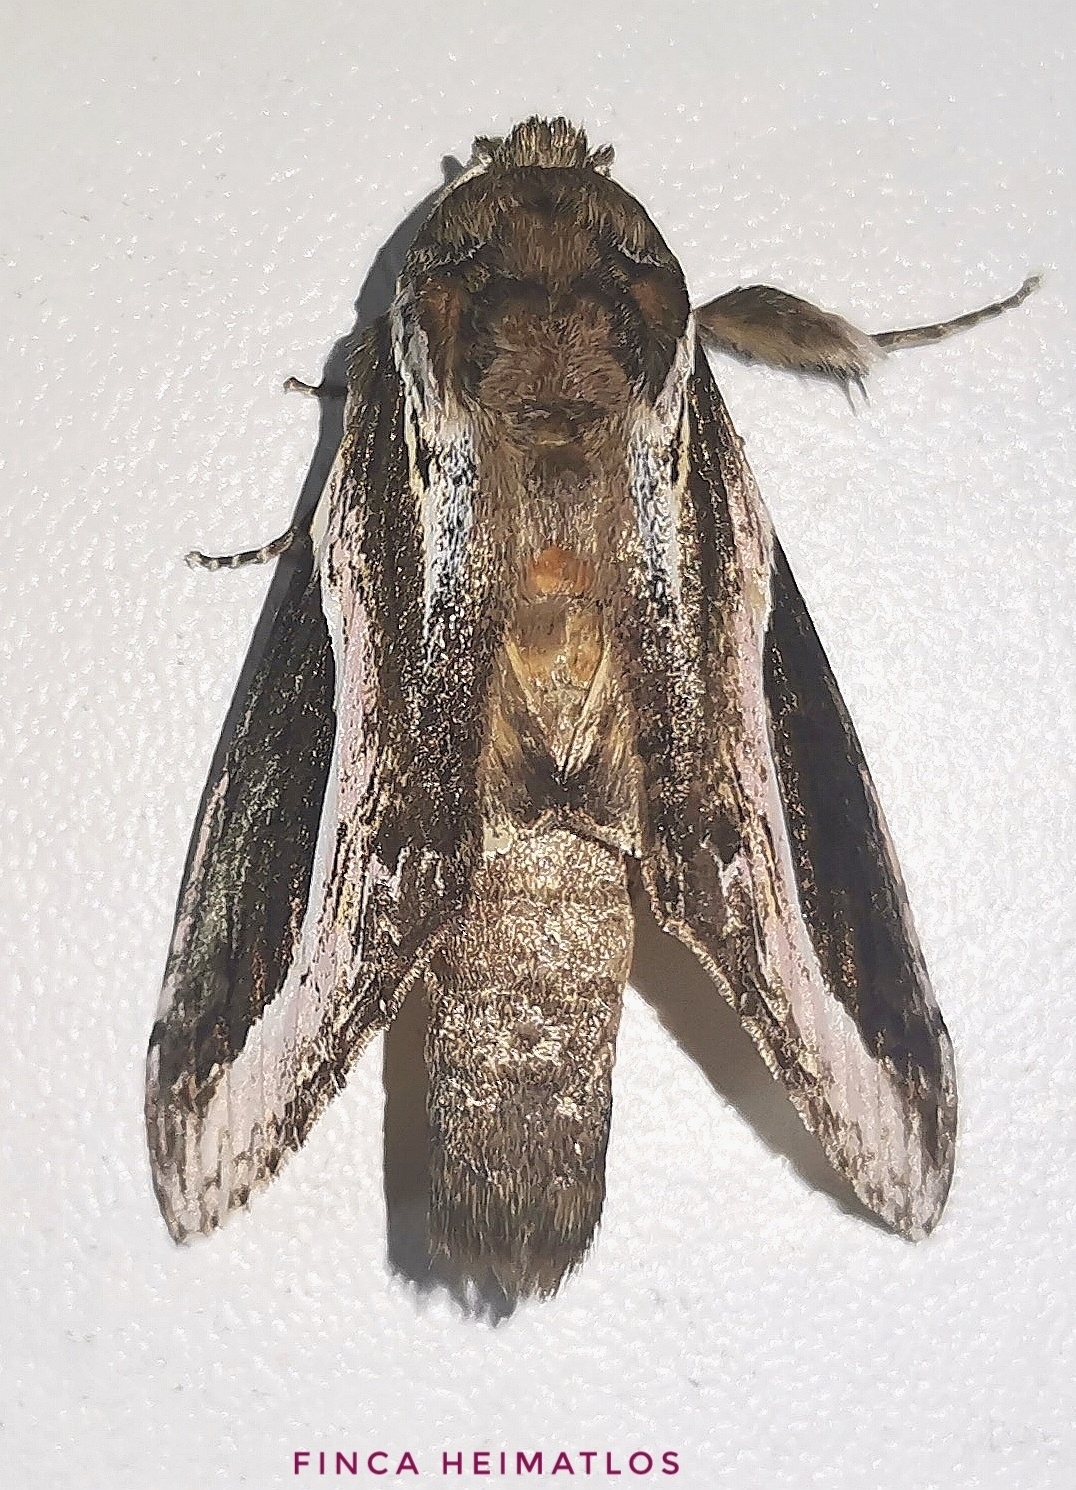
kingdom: Animalia
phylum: Arthropoda
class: Insecta
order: Lepidoptera
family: Notodontidae
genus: Rhuda
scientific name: Rhuda dissona
